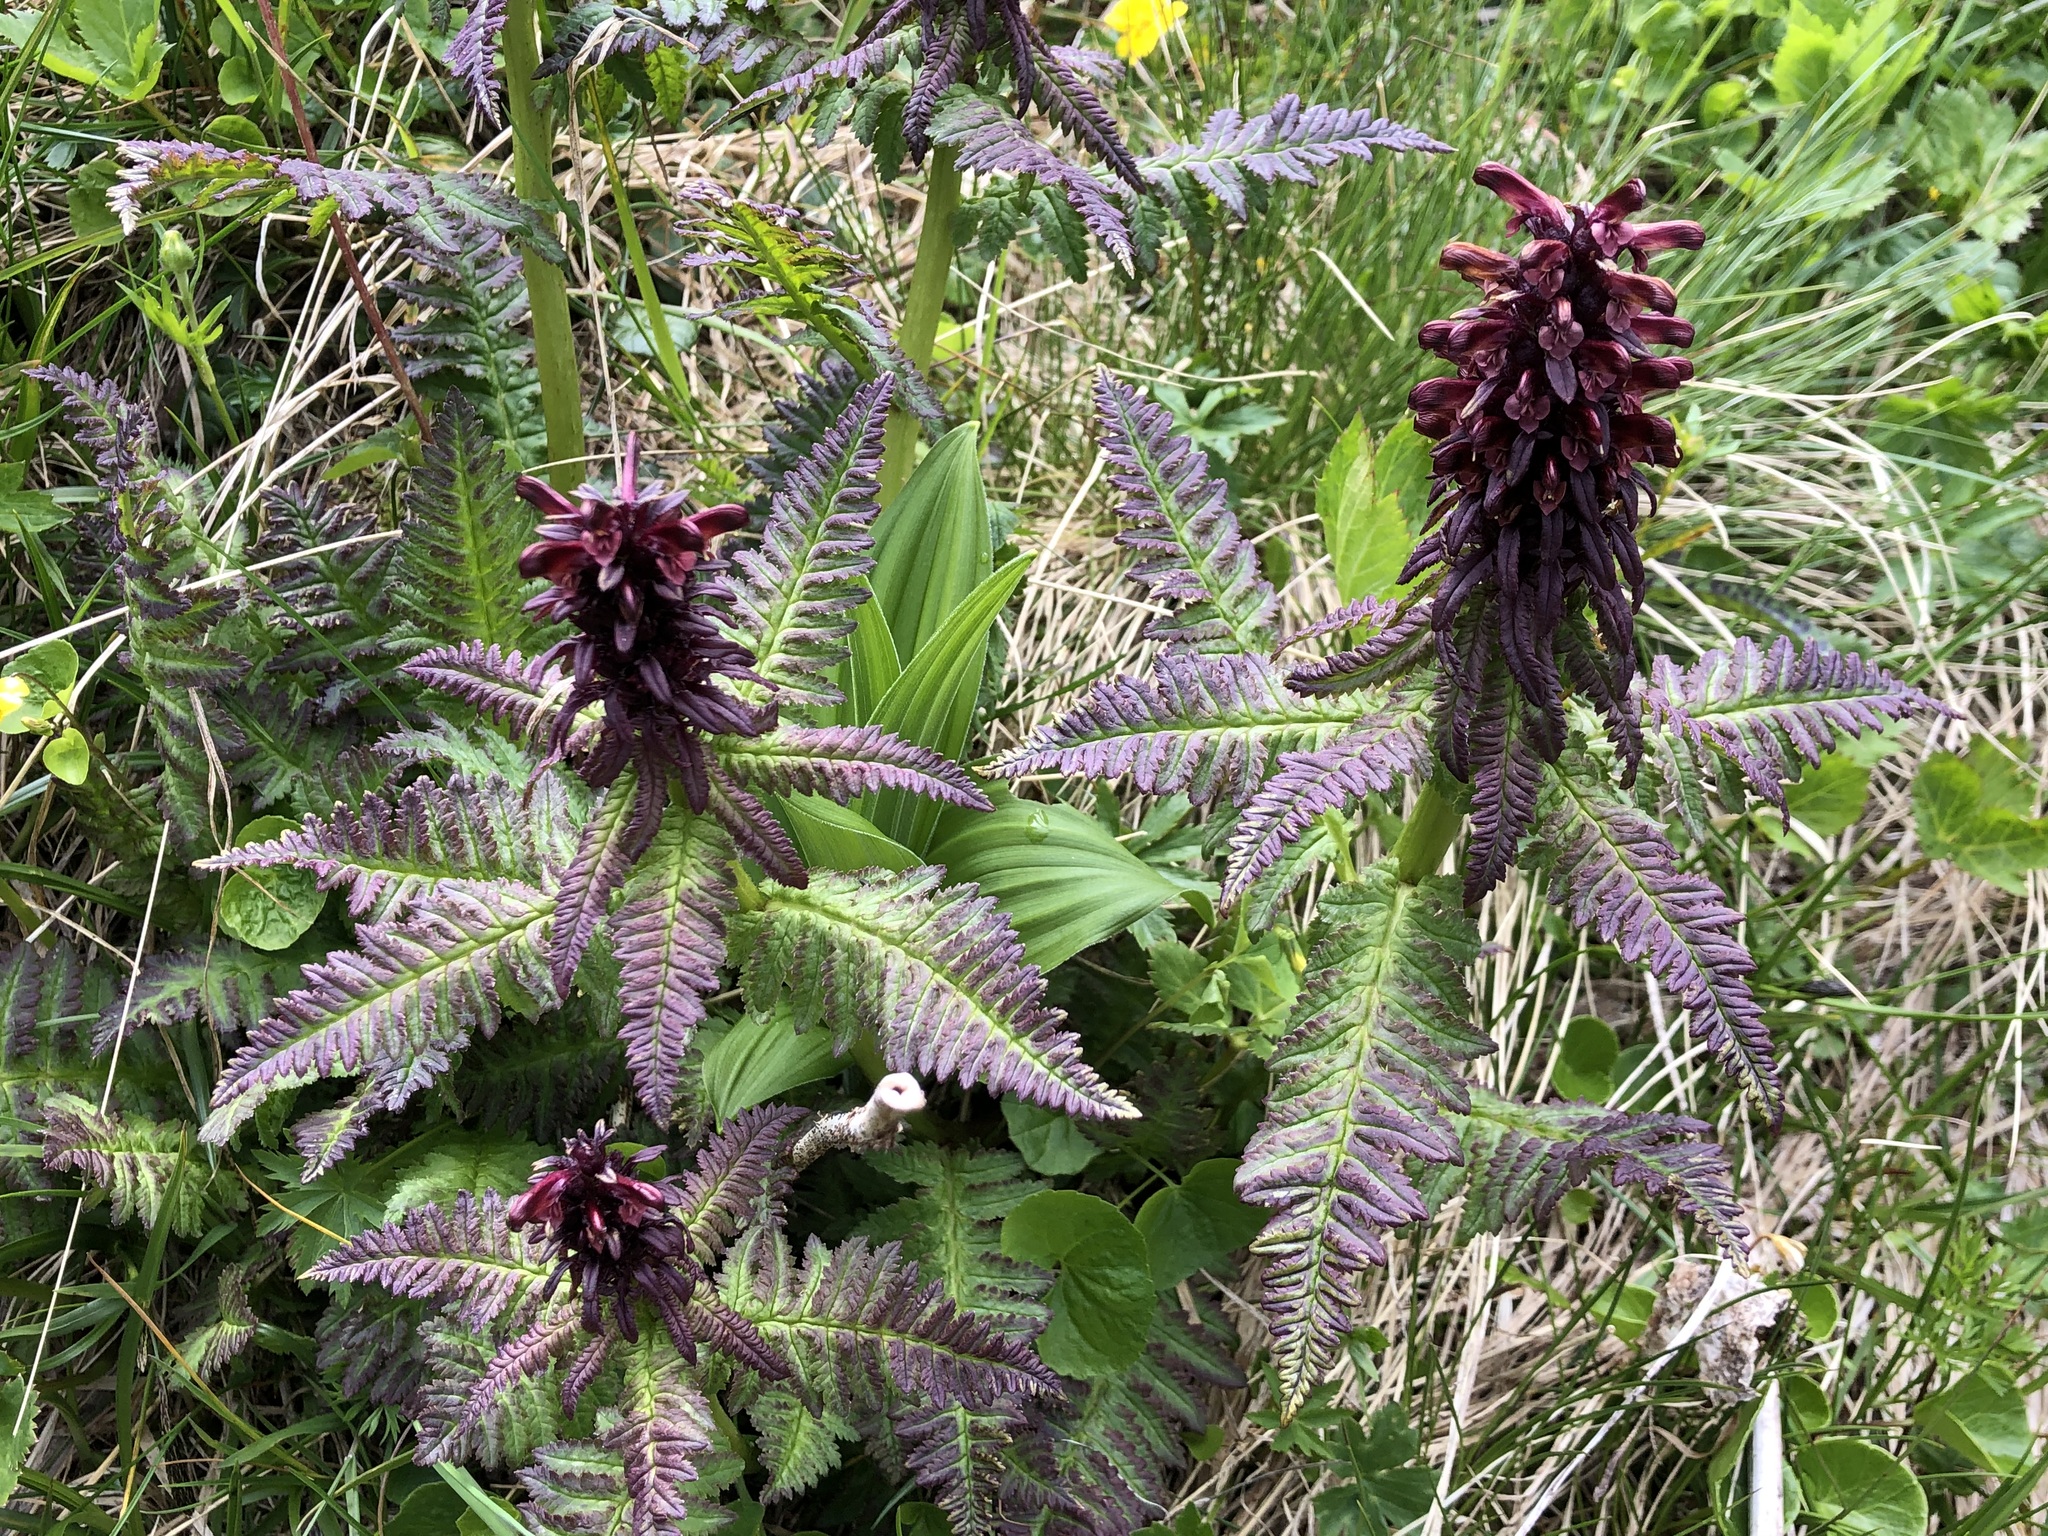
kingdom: Plantae
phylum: Tracheophyta
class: Magnoliopsida
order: Lamiales
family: Orobanchaceae
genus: Pedicularis
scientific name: Pedicularis recutita
